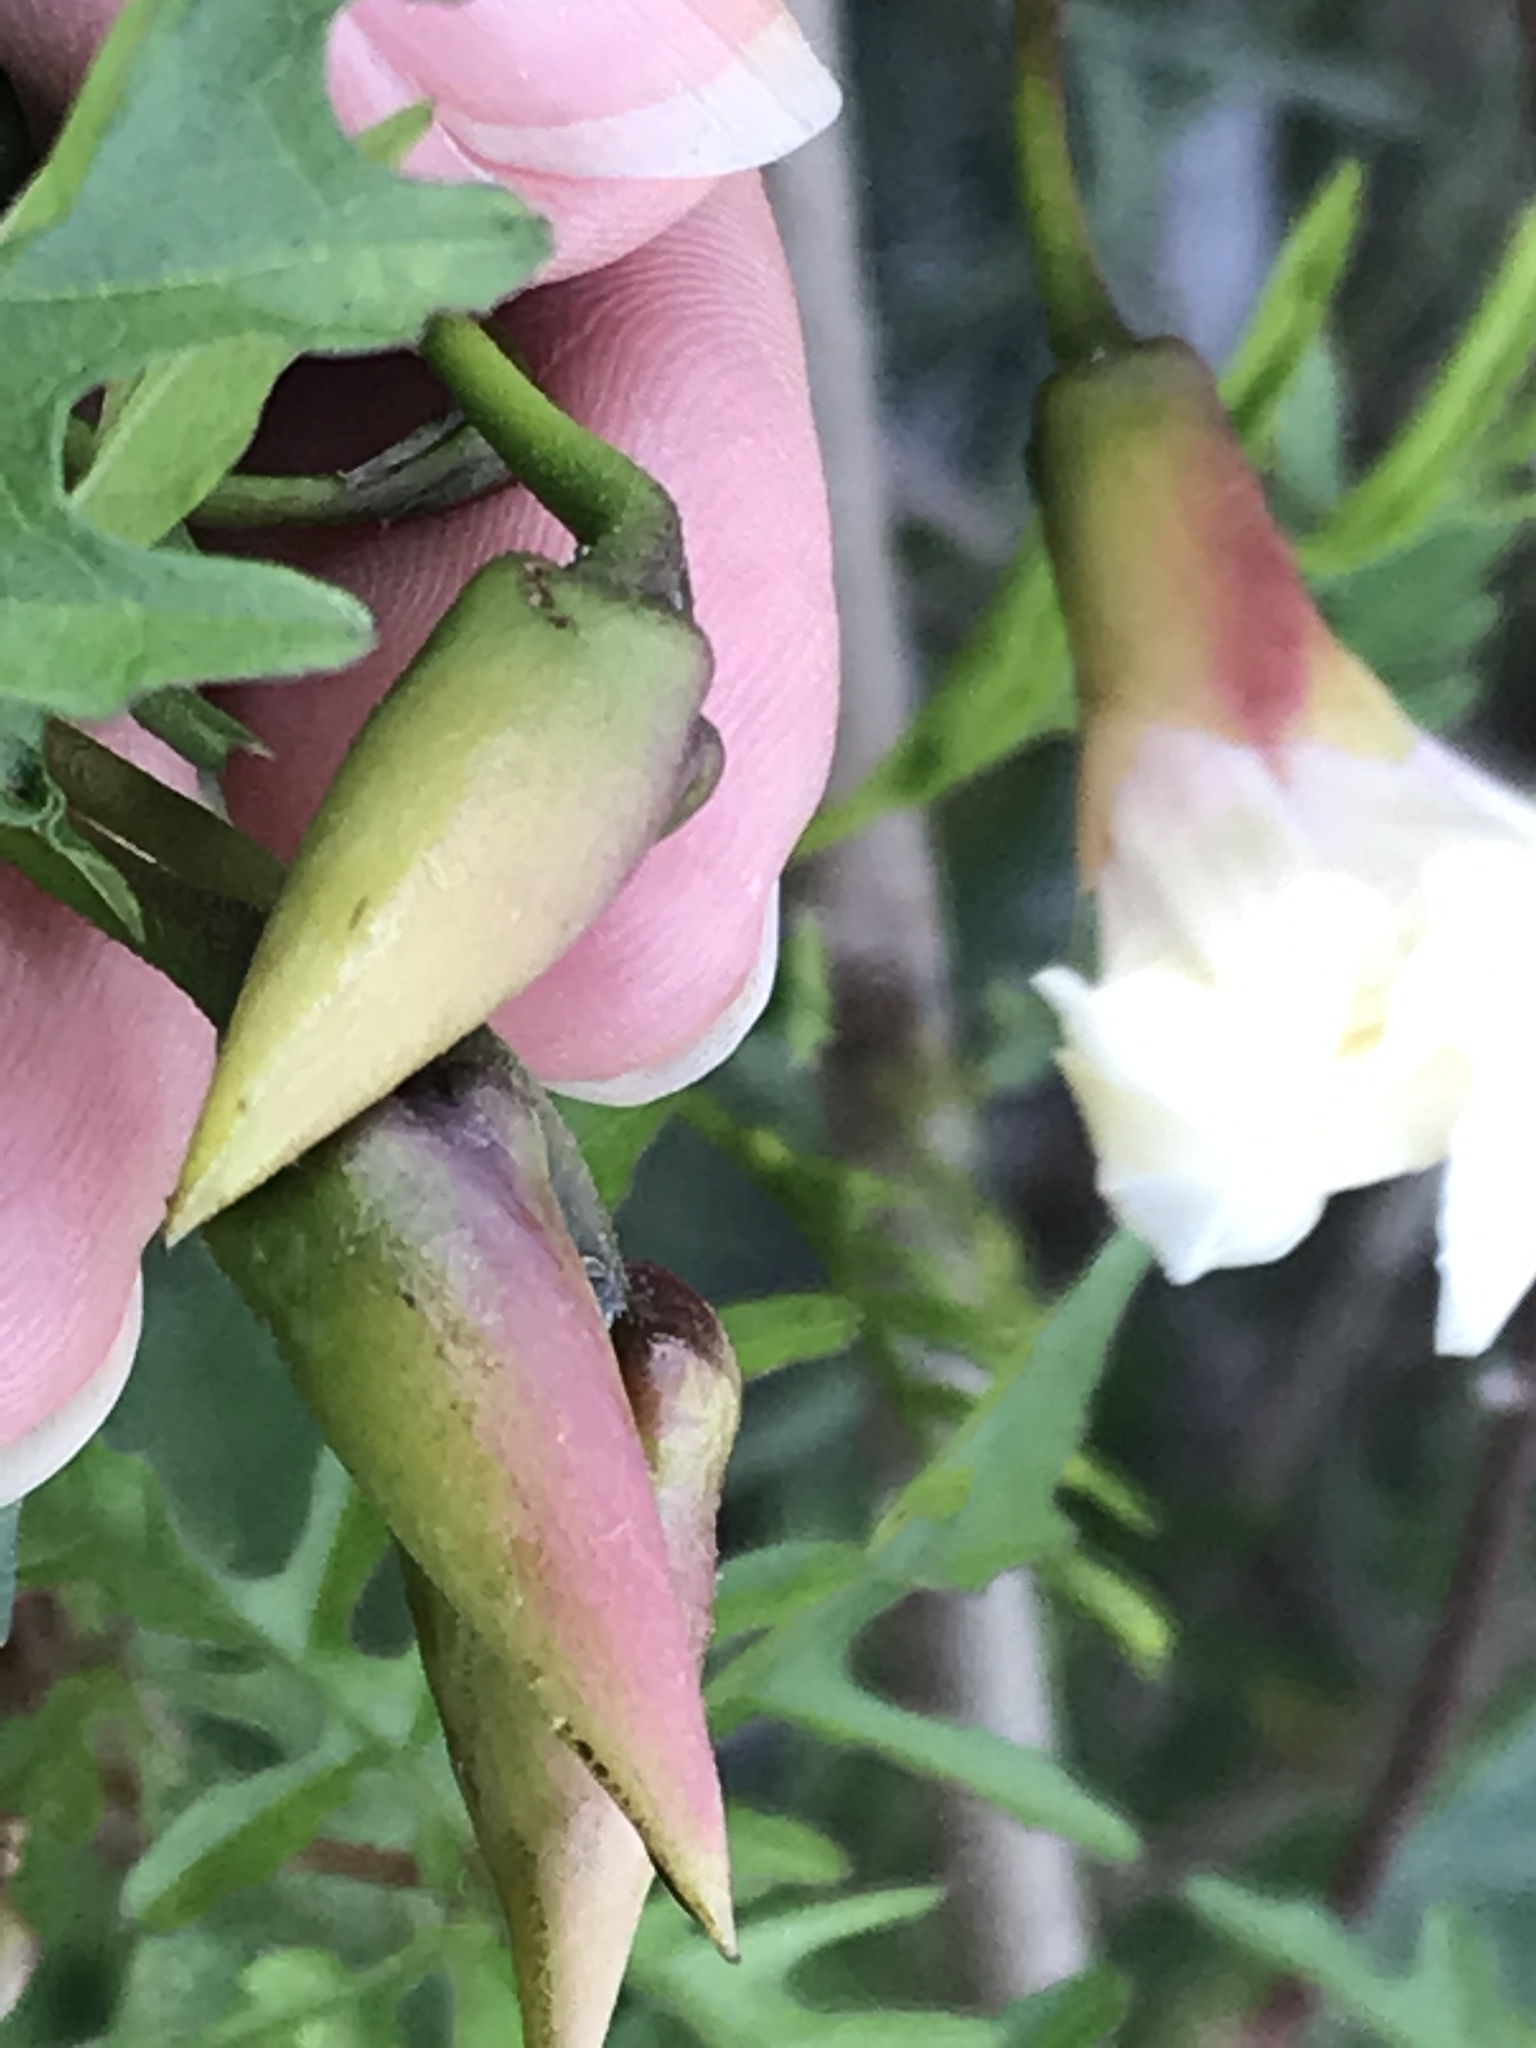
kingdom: Plantae
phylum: Tracheophyta
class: Magnoliopsida
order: Solanales
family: Convolvulaceae
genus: Distimake
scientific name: Distimake dissectus
